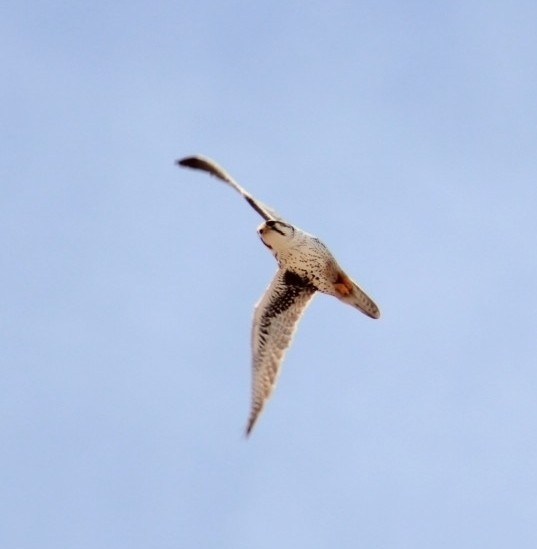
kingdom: Animalia
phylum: Chordata
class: Aves
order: Falconiformes
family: Falconidae
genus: Falco
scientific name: Falco mexicanus
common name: Prairie falcon
